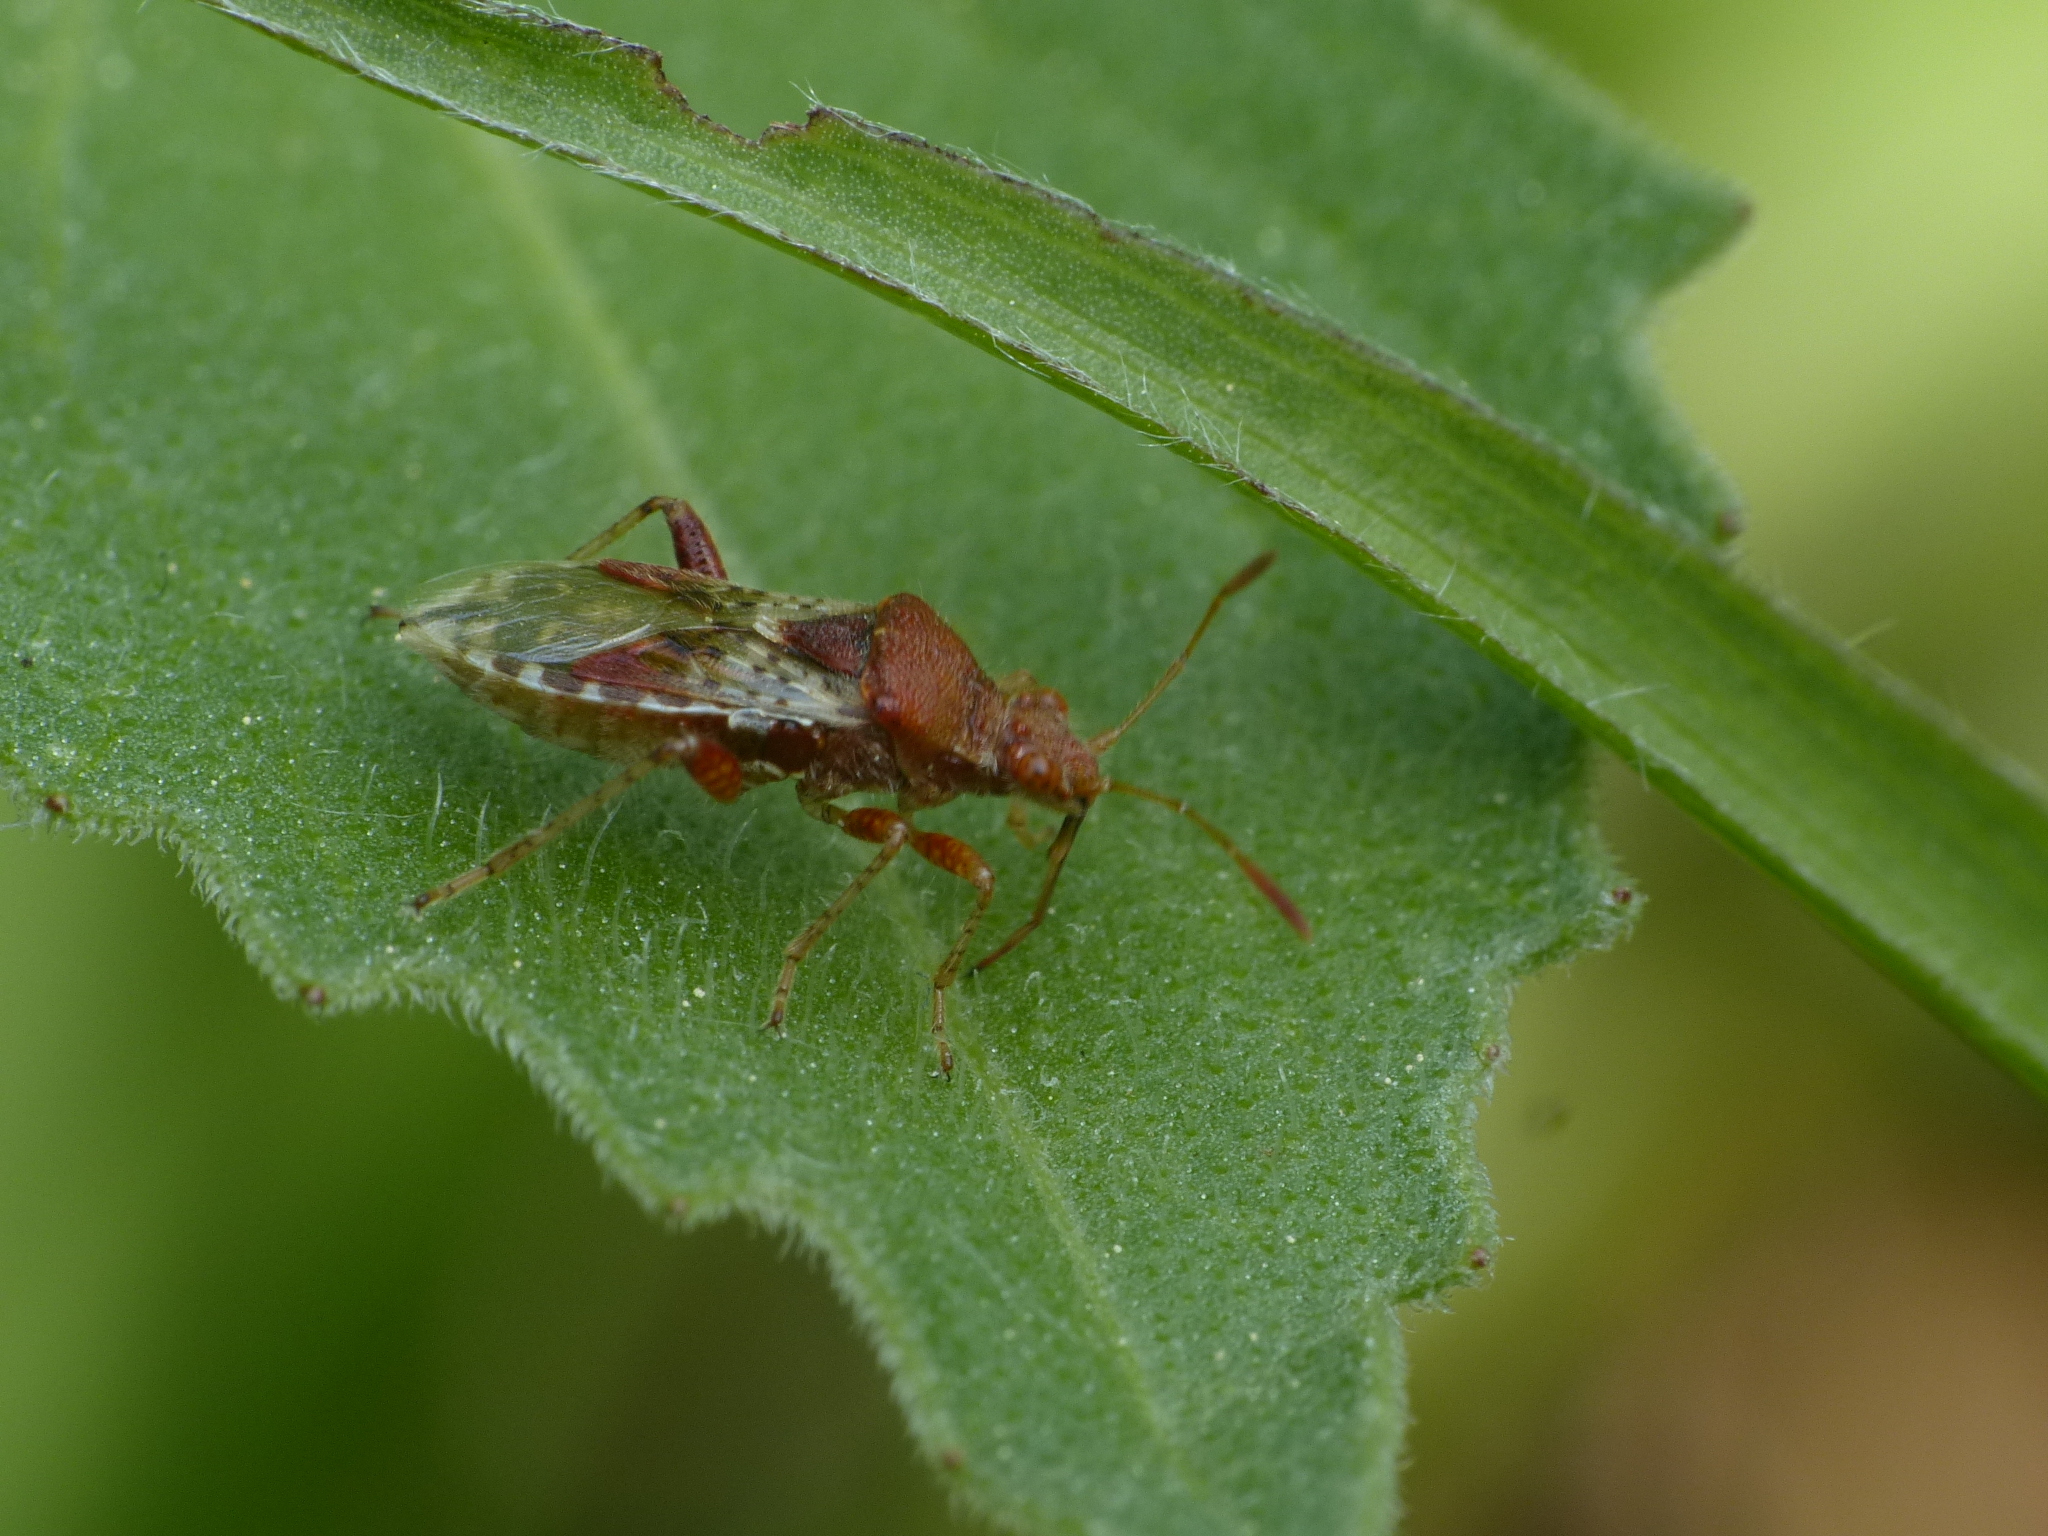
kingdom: Animalia
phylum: Arthropoda
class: Insecta
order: Hemiptera
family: Rhopalidae
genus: Rhopalus
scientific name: Rhopalus subrufus
